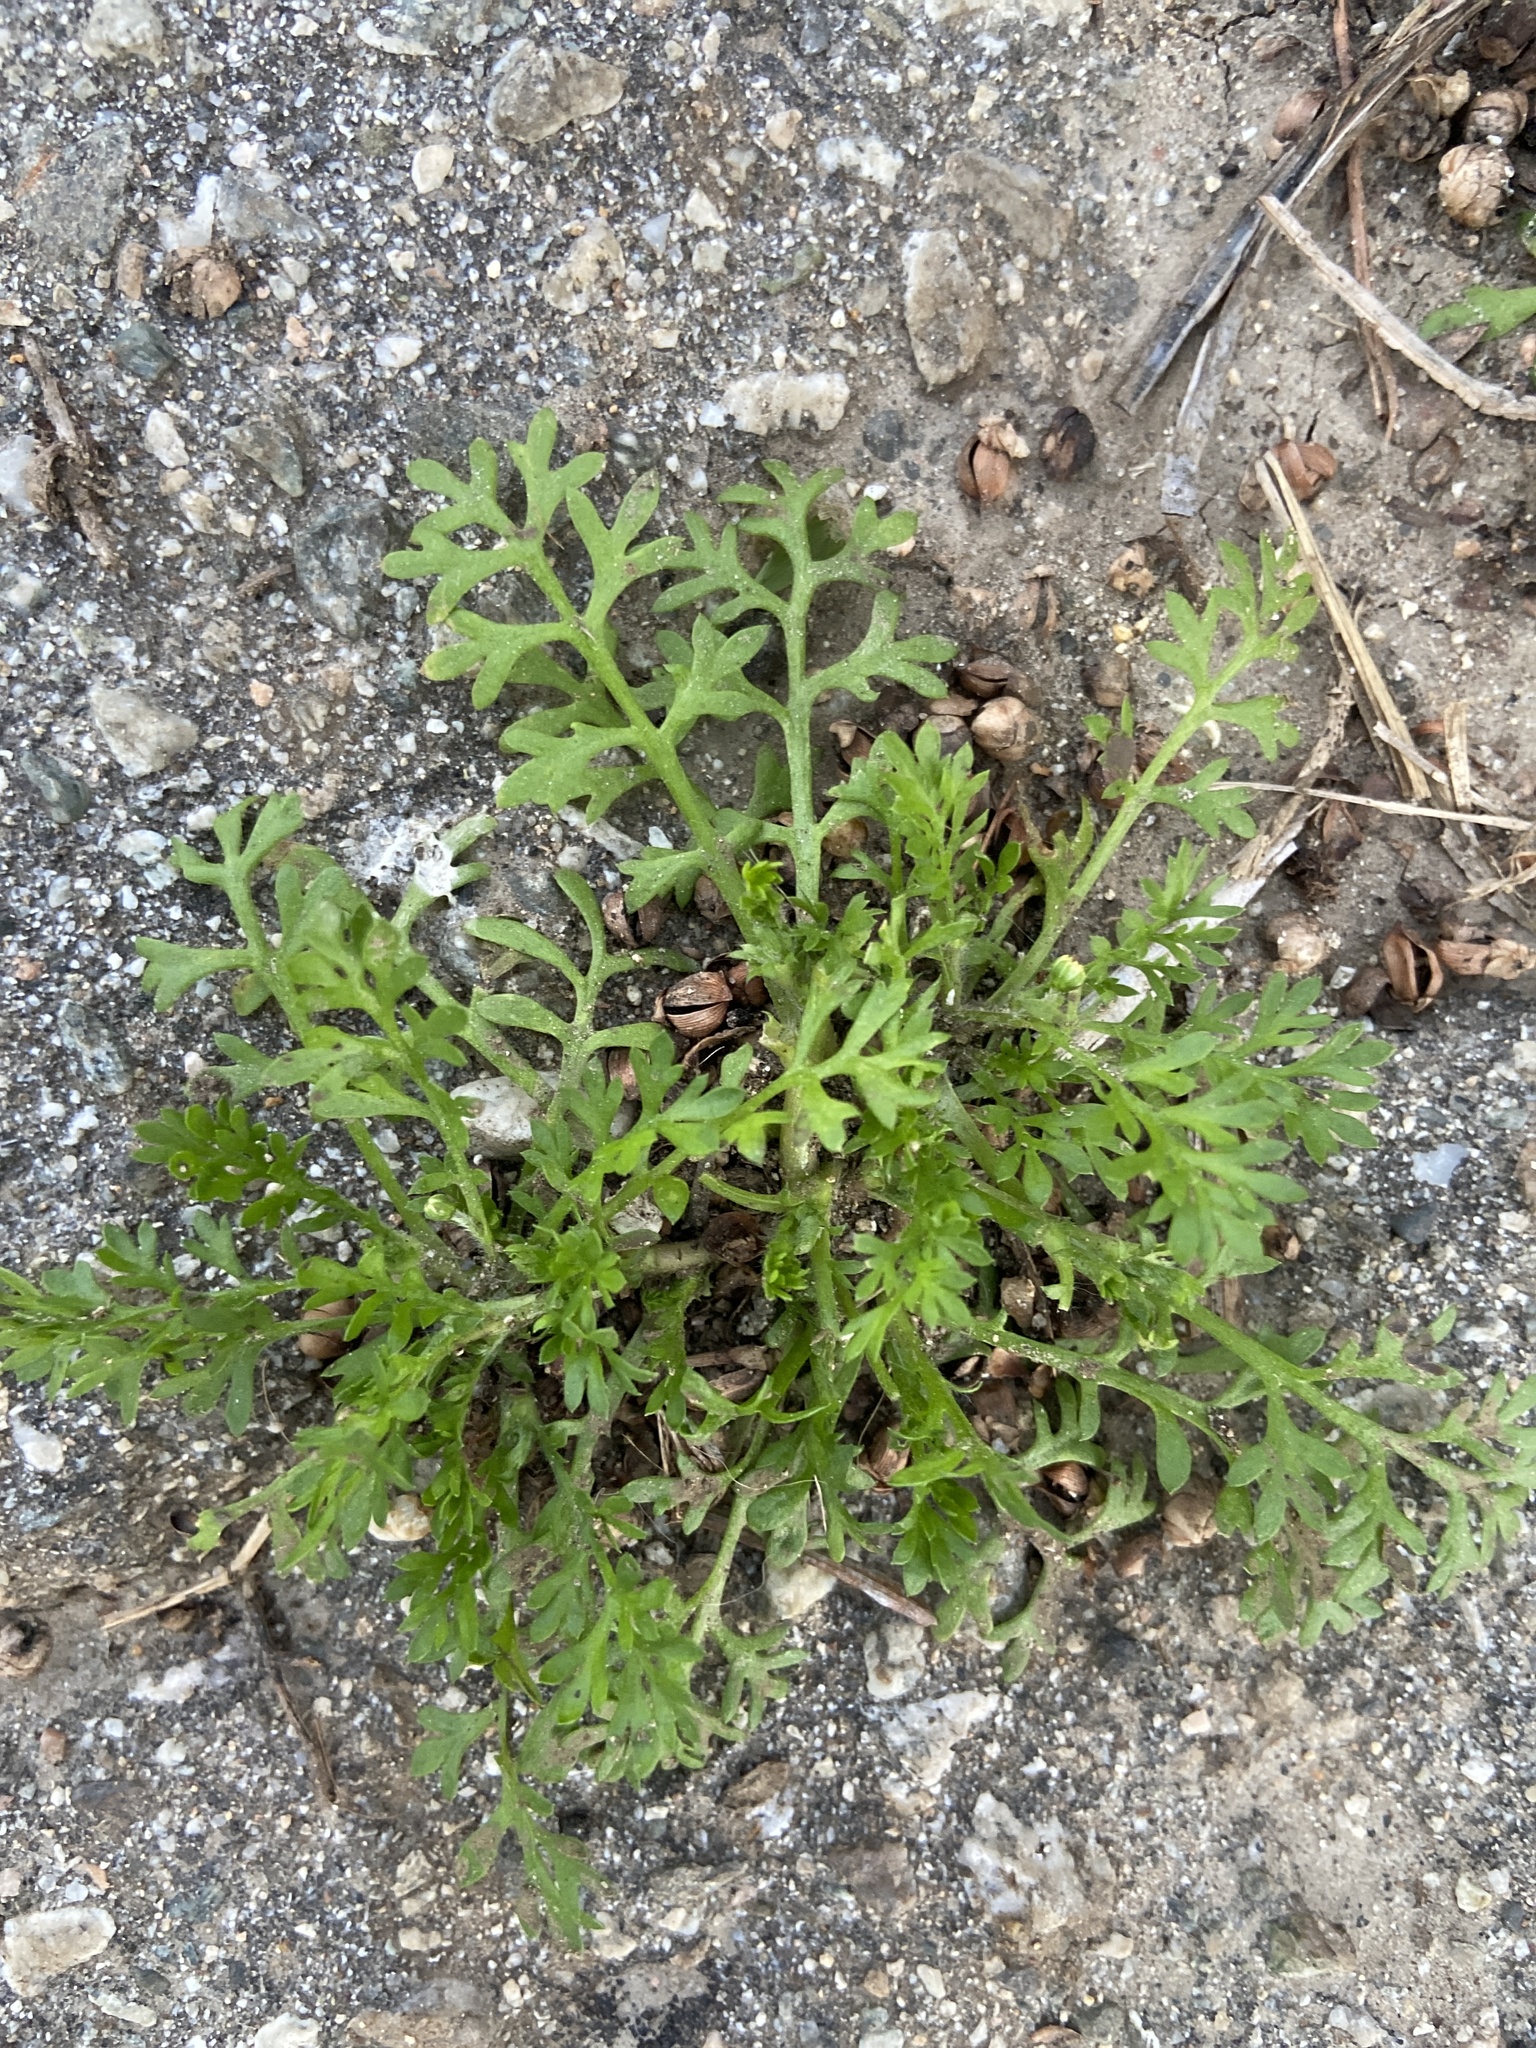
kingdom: Plantae
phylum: Tracheophyta
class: Magnoliopsida
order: Asterales
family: Asteraceae
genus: Cotula
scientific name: Cotula australis
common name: Australian waterbuttons
